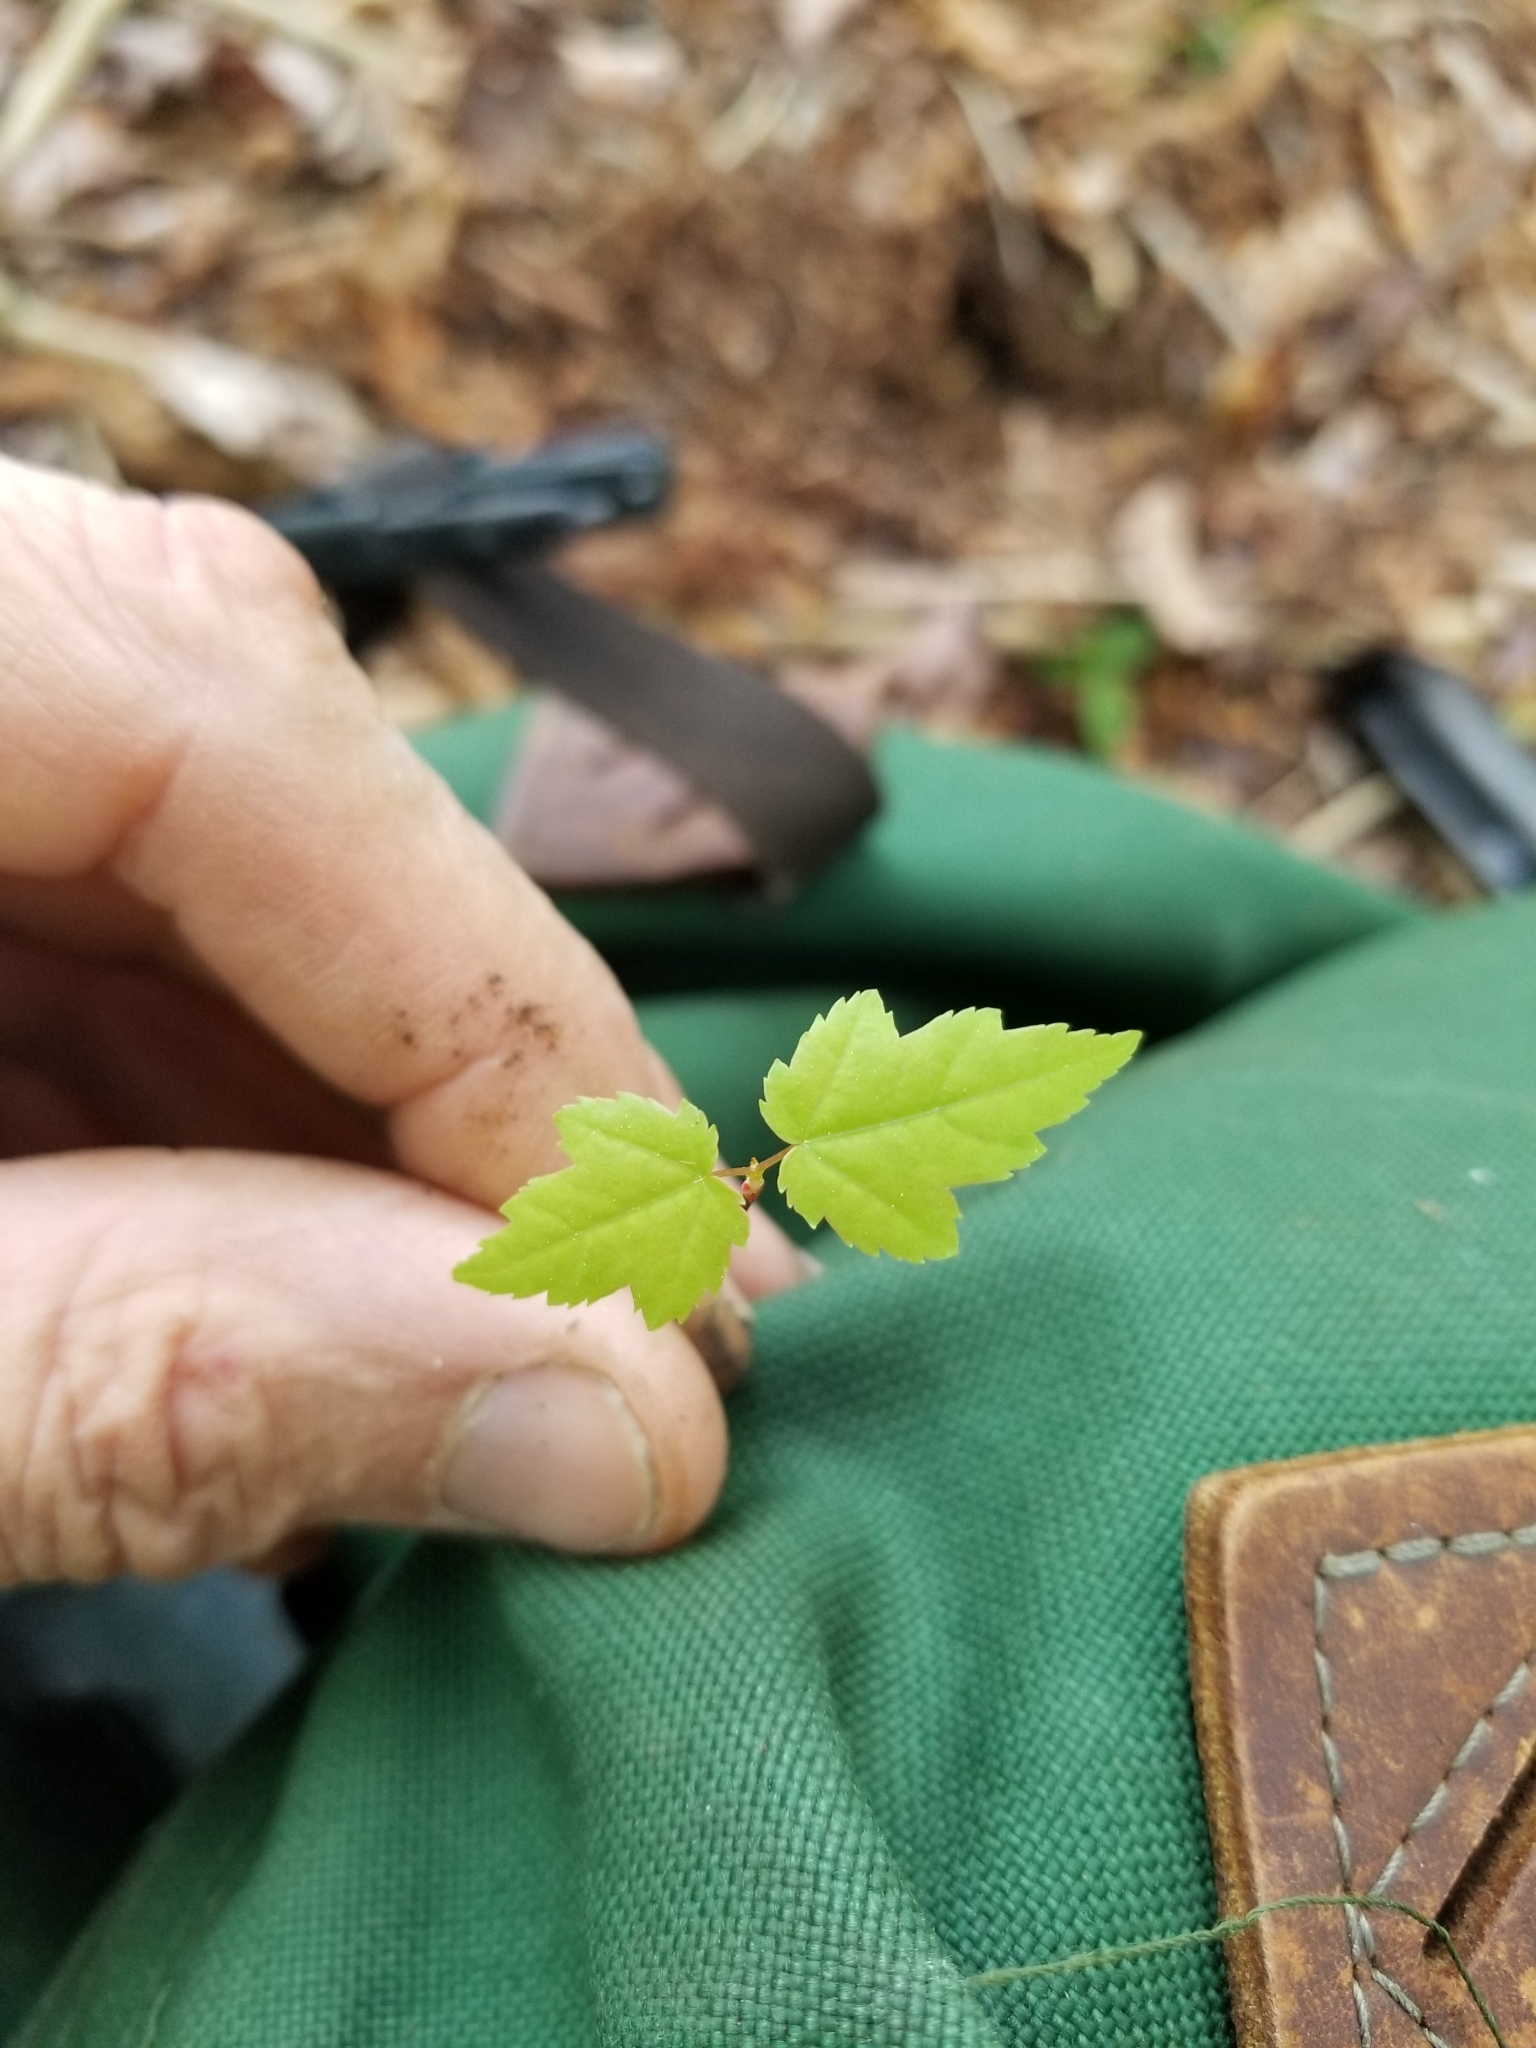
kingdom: Plantae
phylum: Tracheophyta
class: Magnoliopsida
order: Sapindales
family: Sapindaceae
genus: Acer
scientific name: Acer rubrum
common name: Red maple
